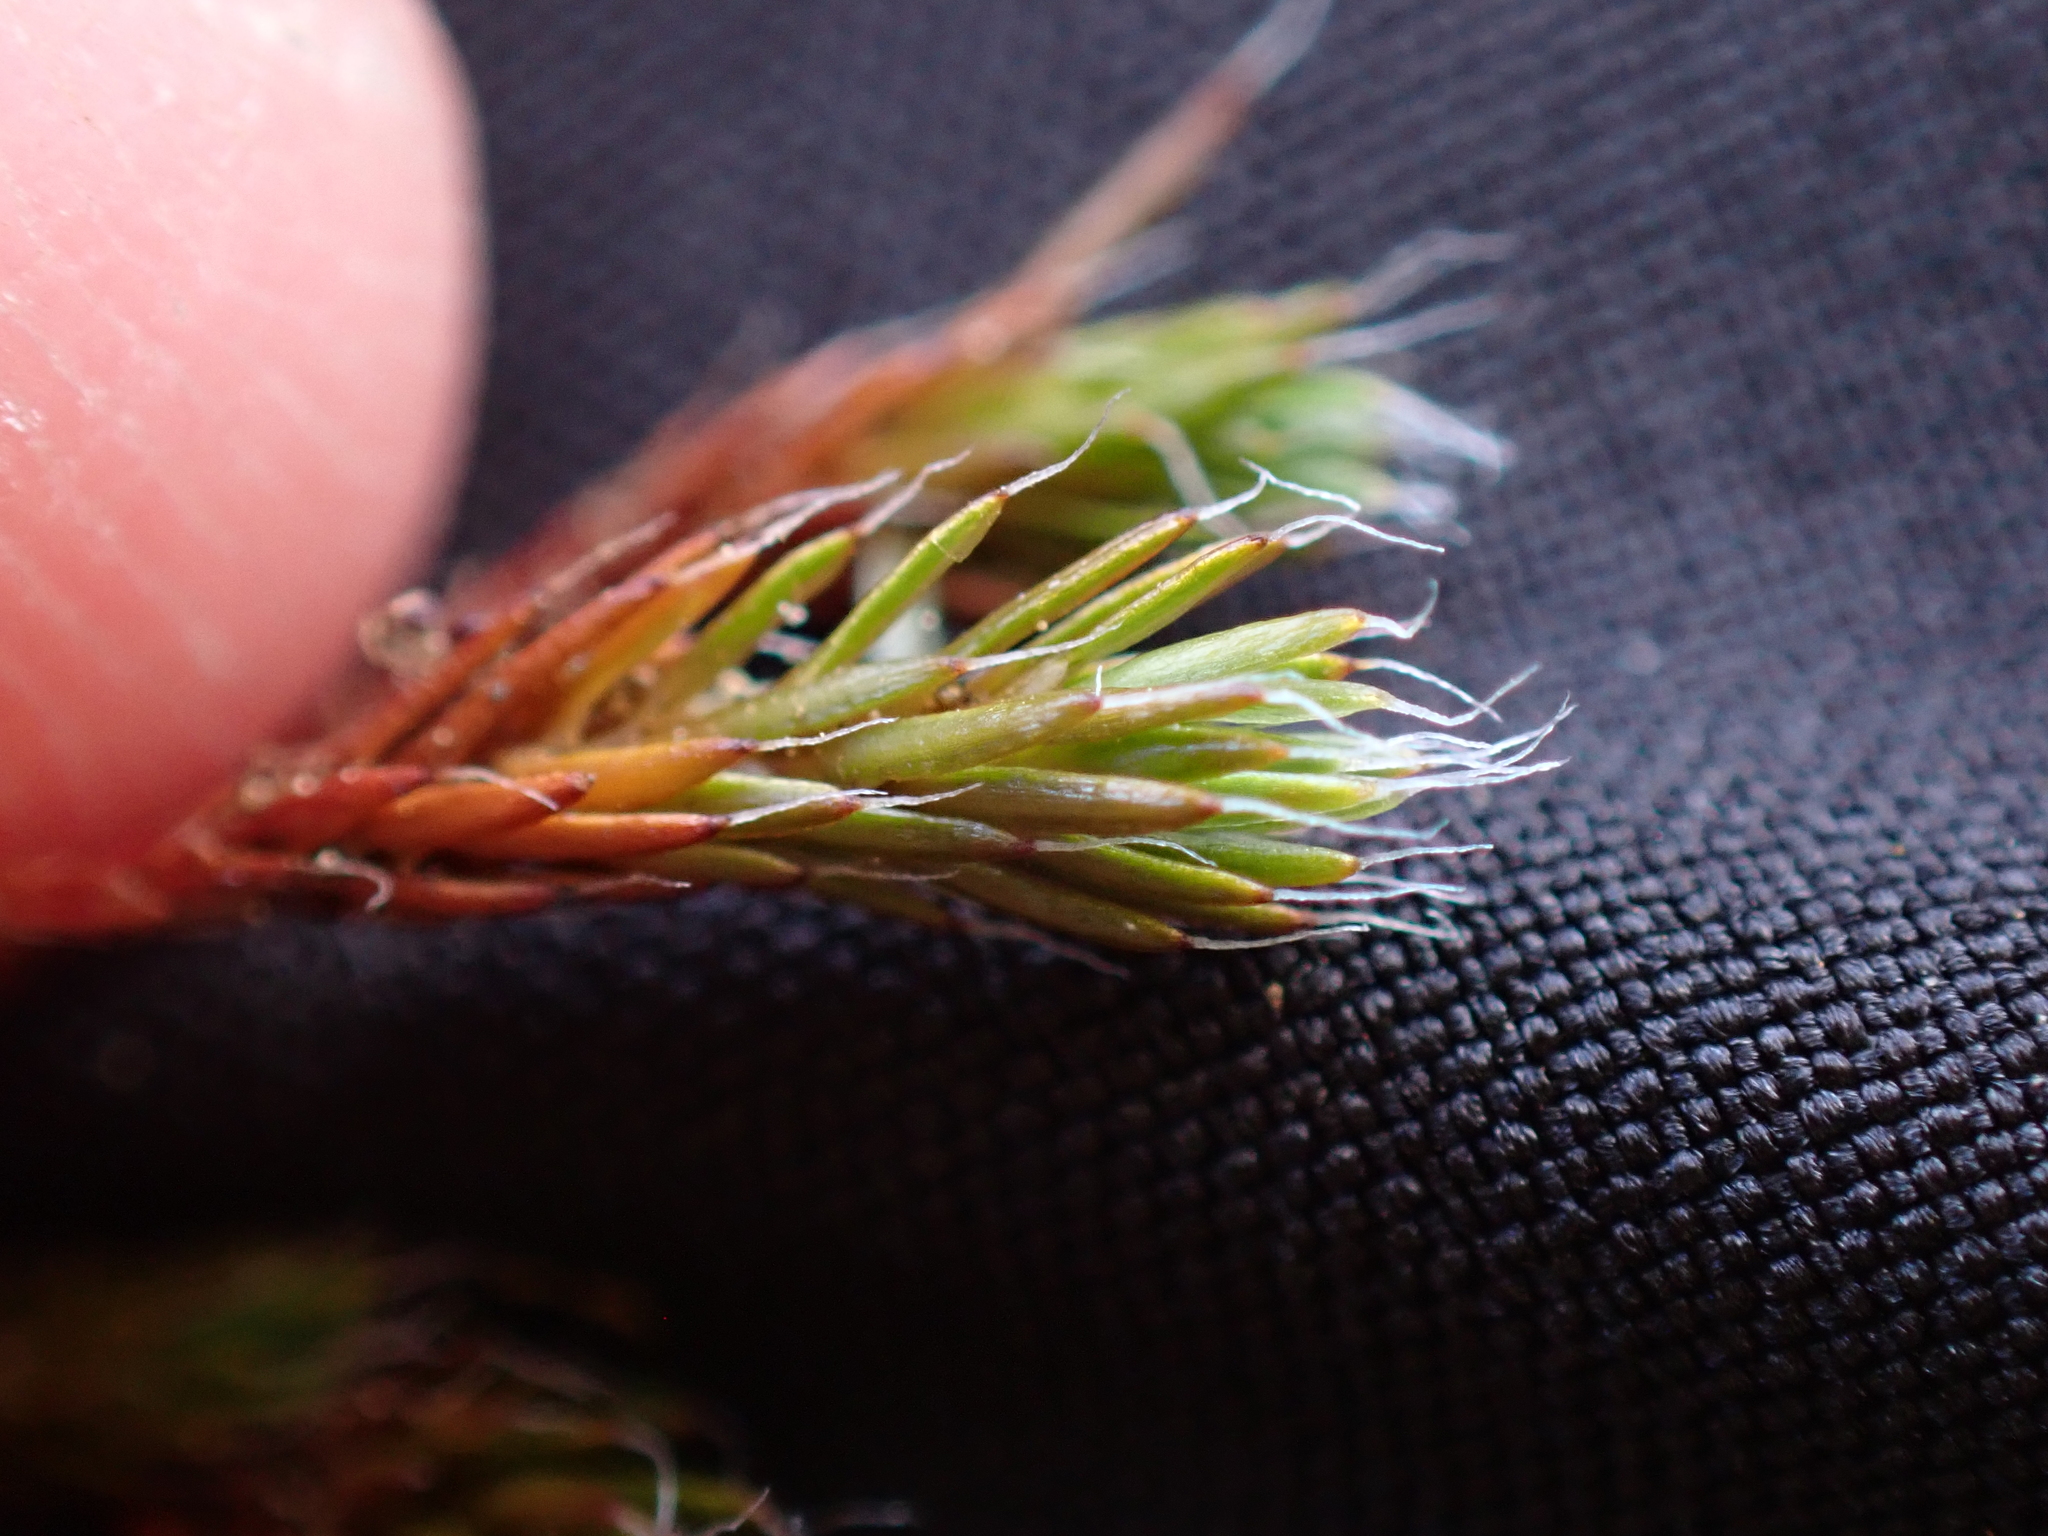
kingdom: Plantae
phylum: Bryophyta
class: Polytrichopsida
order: Polytrichales
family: Polytrichaceae
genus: Polytrichum
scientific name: Polytrichum piliferum
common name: Bristly haircap
